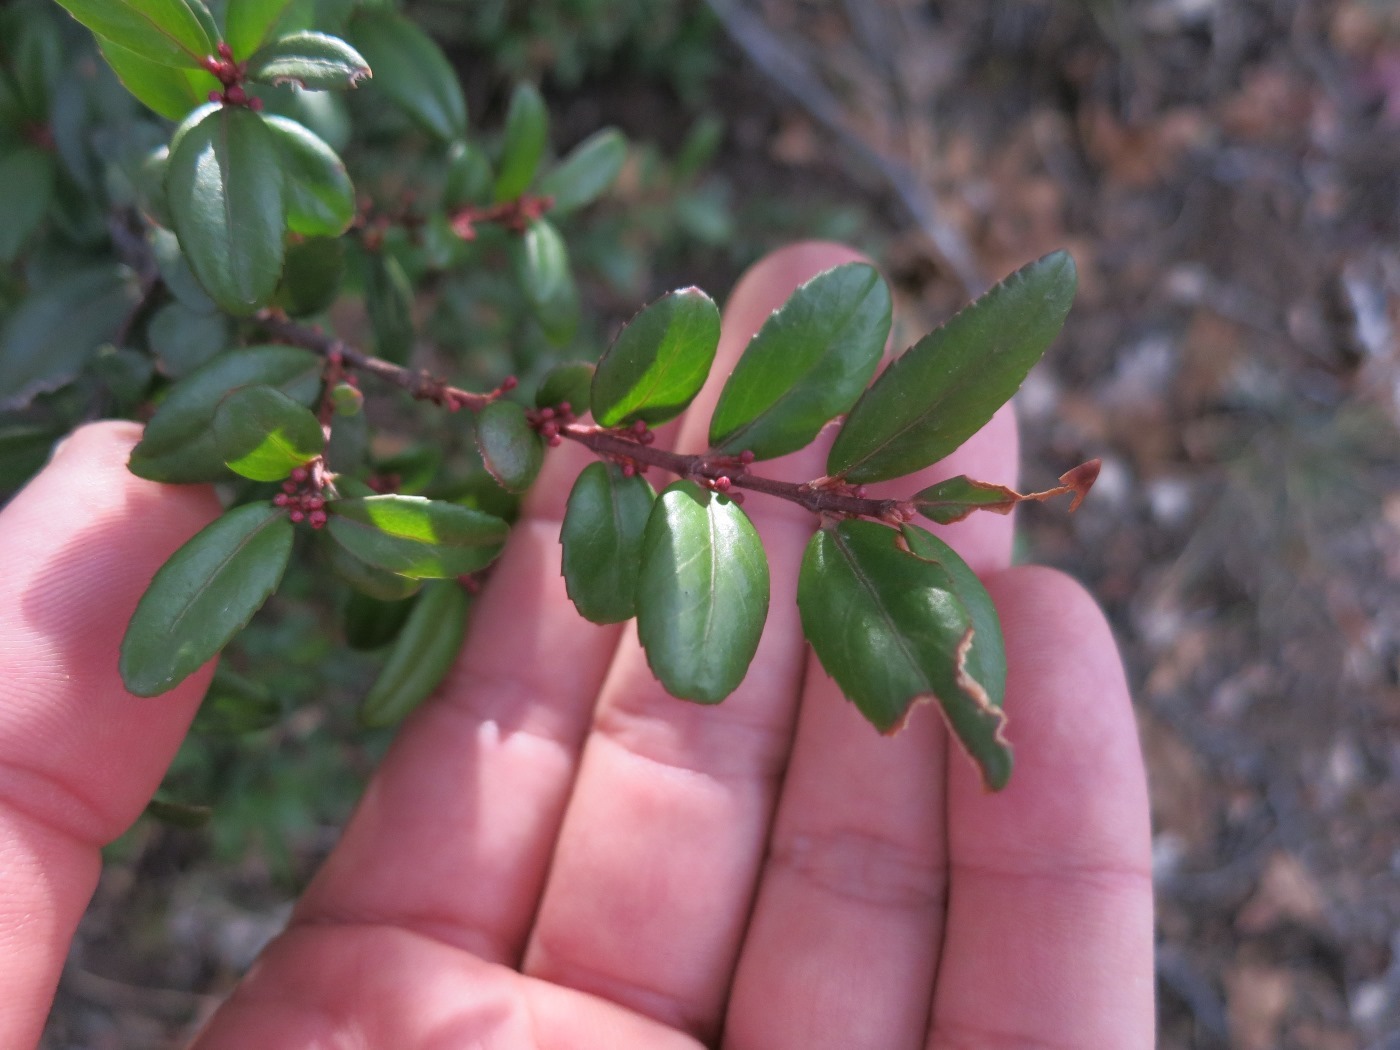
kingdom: Plantae
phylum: Tracheophyta
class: Magnoliopsida
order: Celastrales
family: Celastraceae
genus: Paxistima
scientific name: Paxistima myrsinites
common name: Mountain-lover
